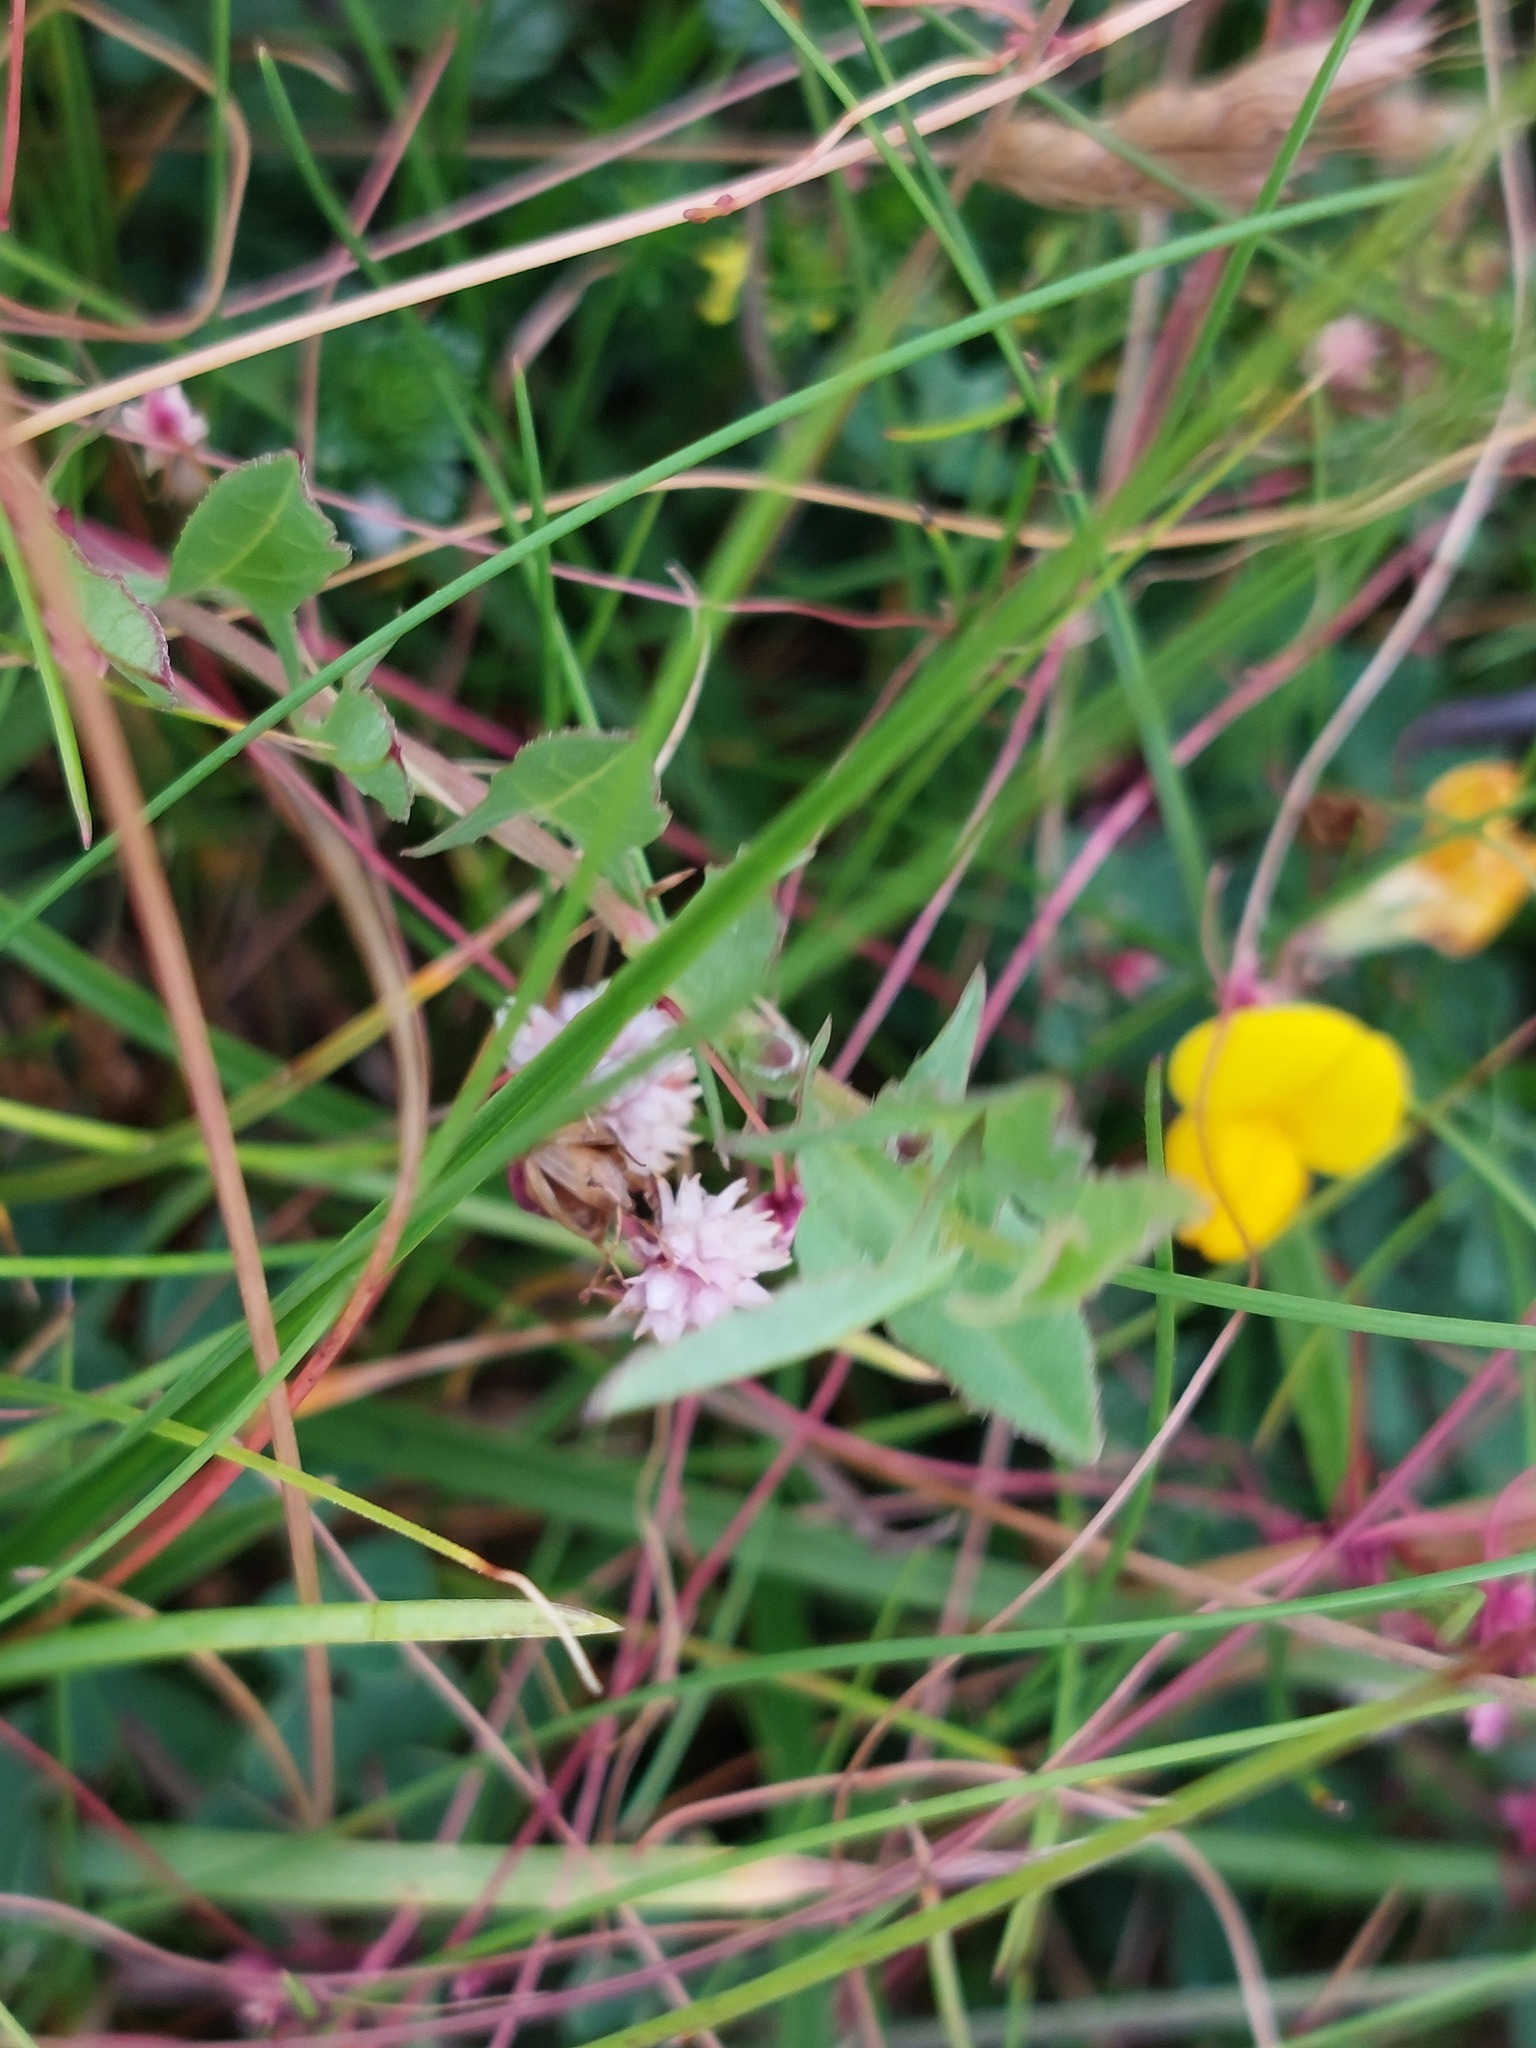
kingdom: Plantae
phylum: Tracheophyta
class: Magnoliopsida
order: Solanales
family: Convolvulaceae
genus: Cuscuta
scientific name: Cuscuta epithymum
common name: Clover dodder
